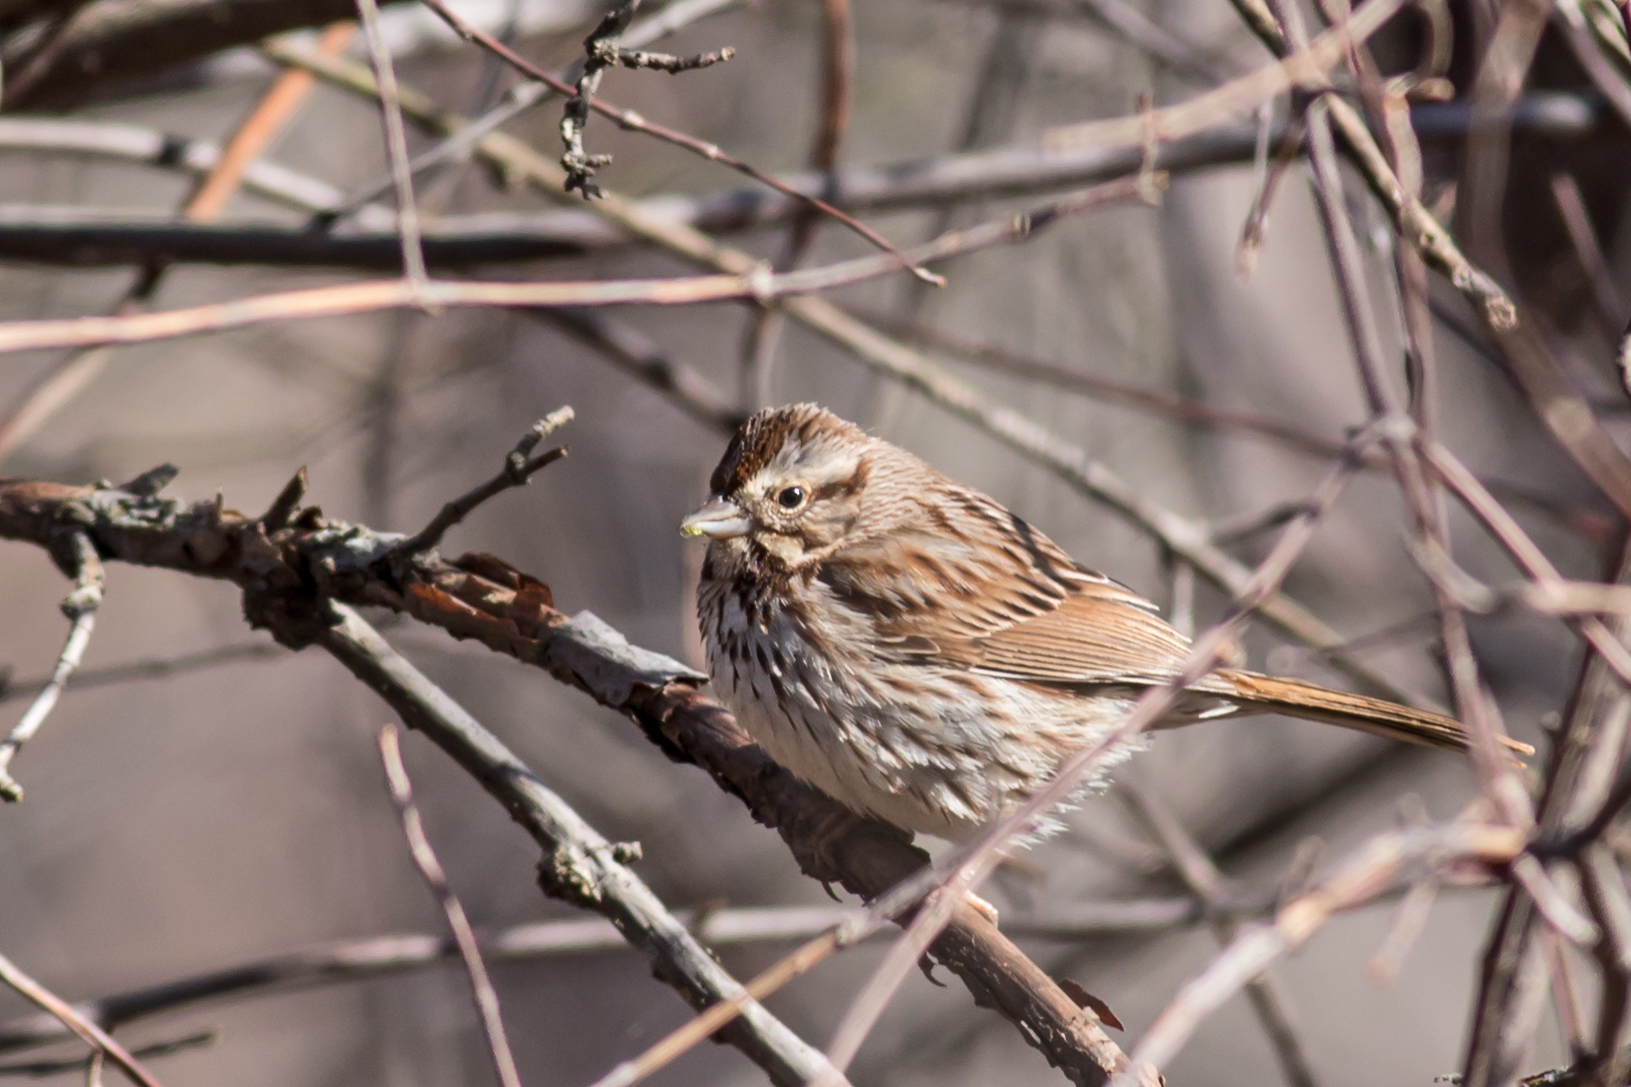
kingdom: Animalia
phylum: Chordata
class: Aves
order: Passeriformes
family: Passerellidae
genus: Melospiza
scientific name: Melospiza melodia
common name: Song sparrow
